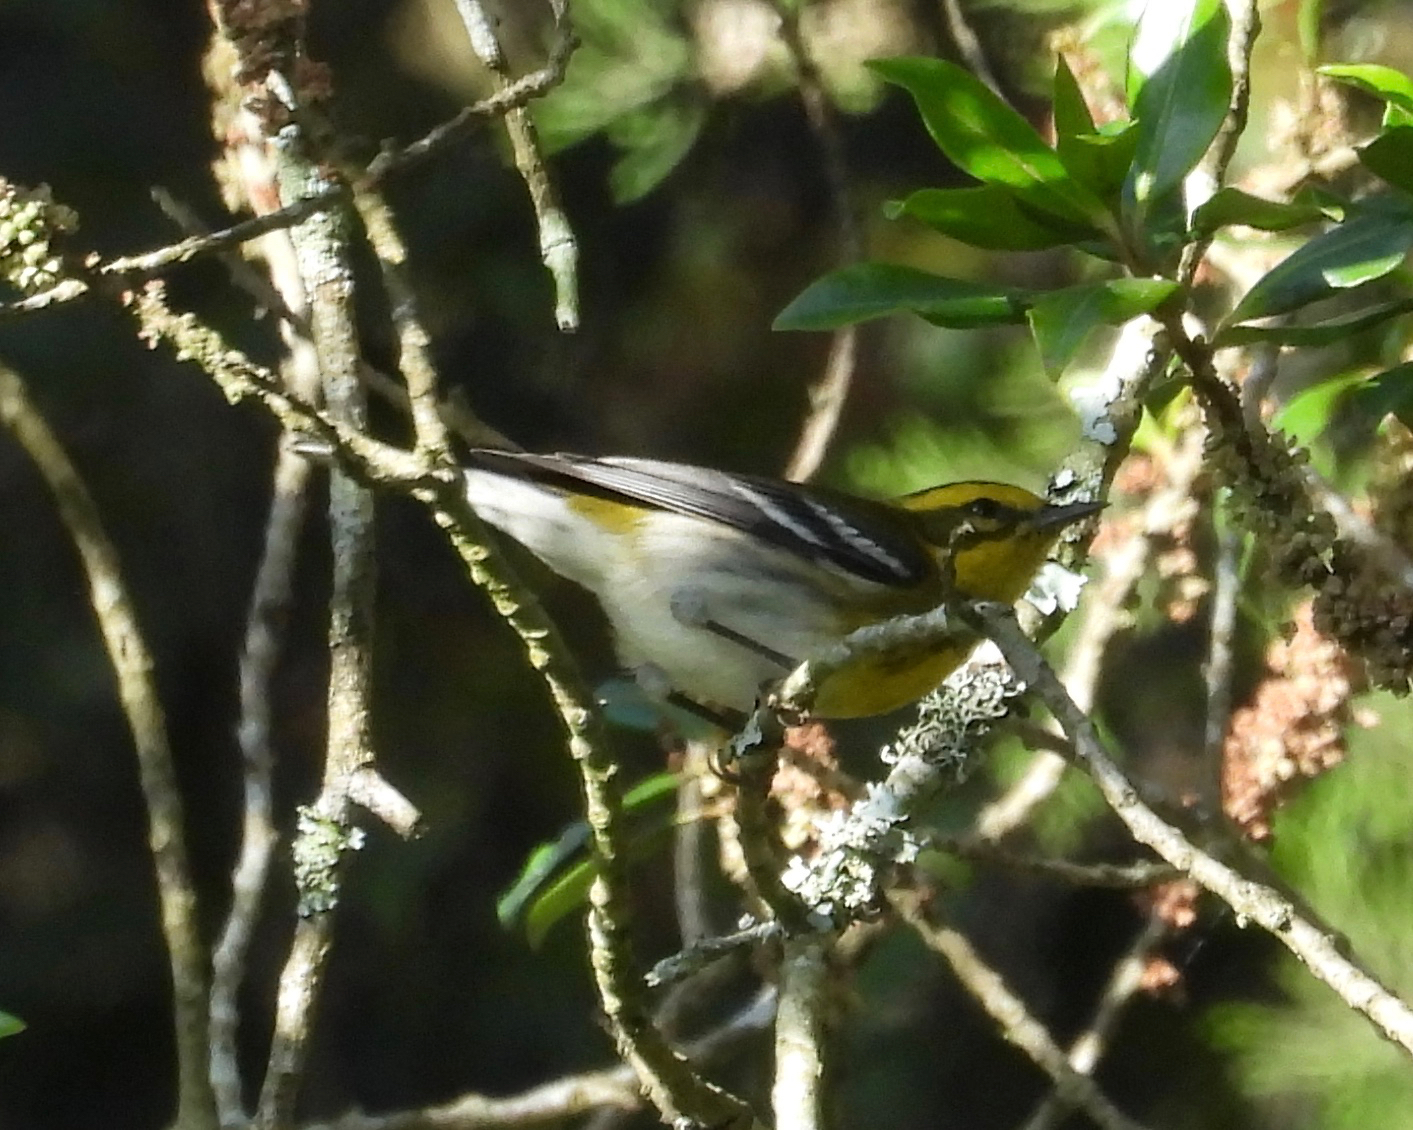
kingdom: Animalia
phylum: Chordata
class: Aves
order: Passeriformes
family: Parulidae
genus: Setophaga
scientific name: Setophaga townsendi
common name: Townsend's warbler
